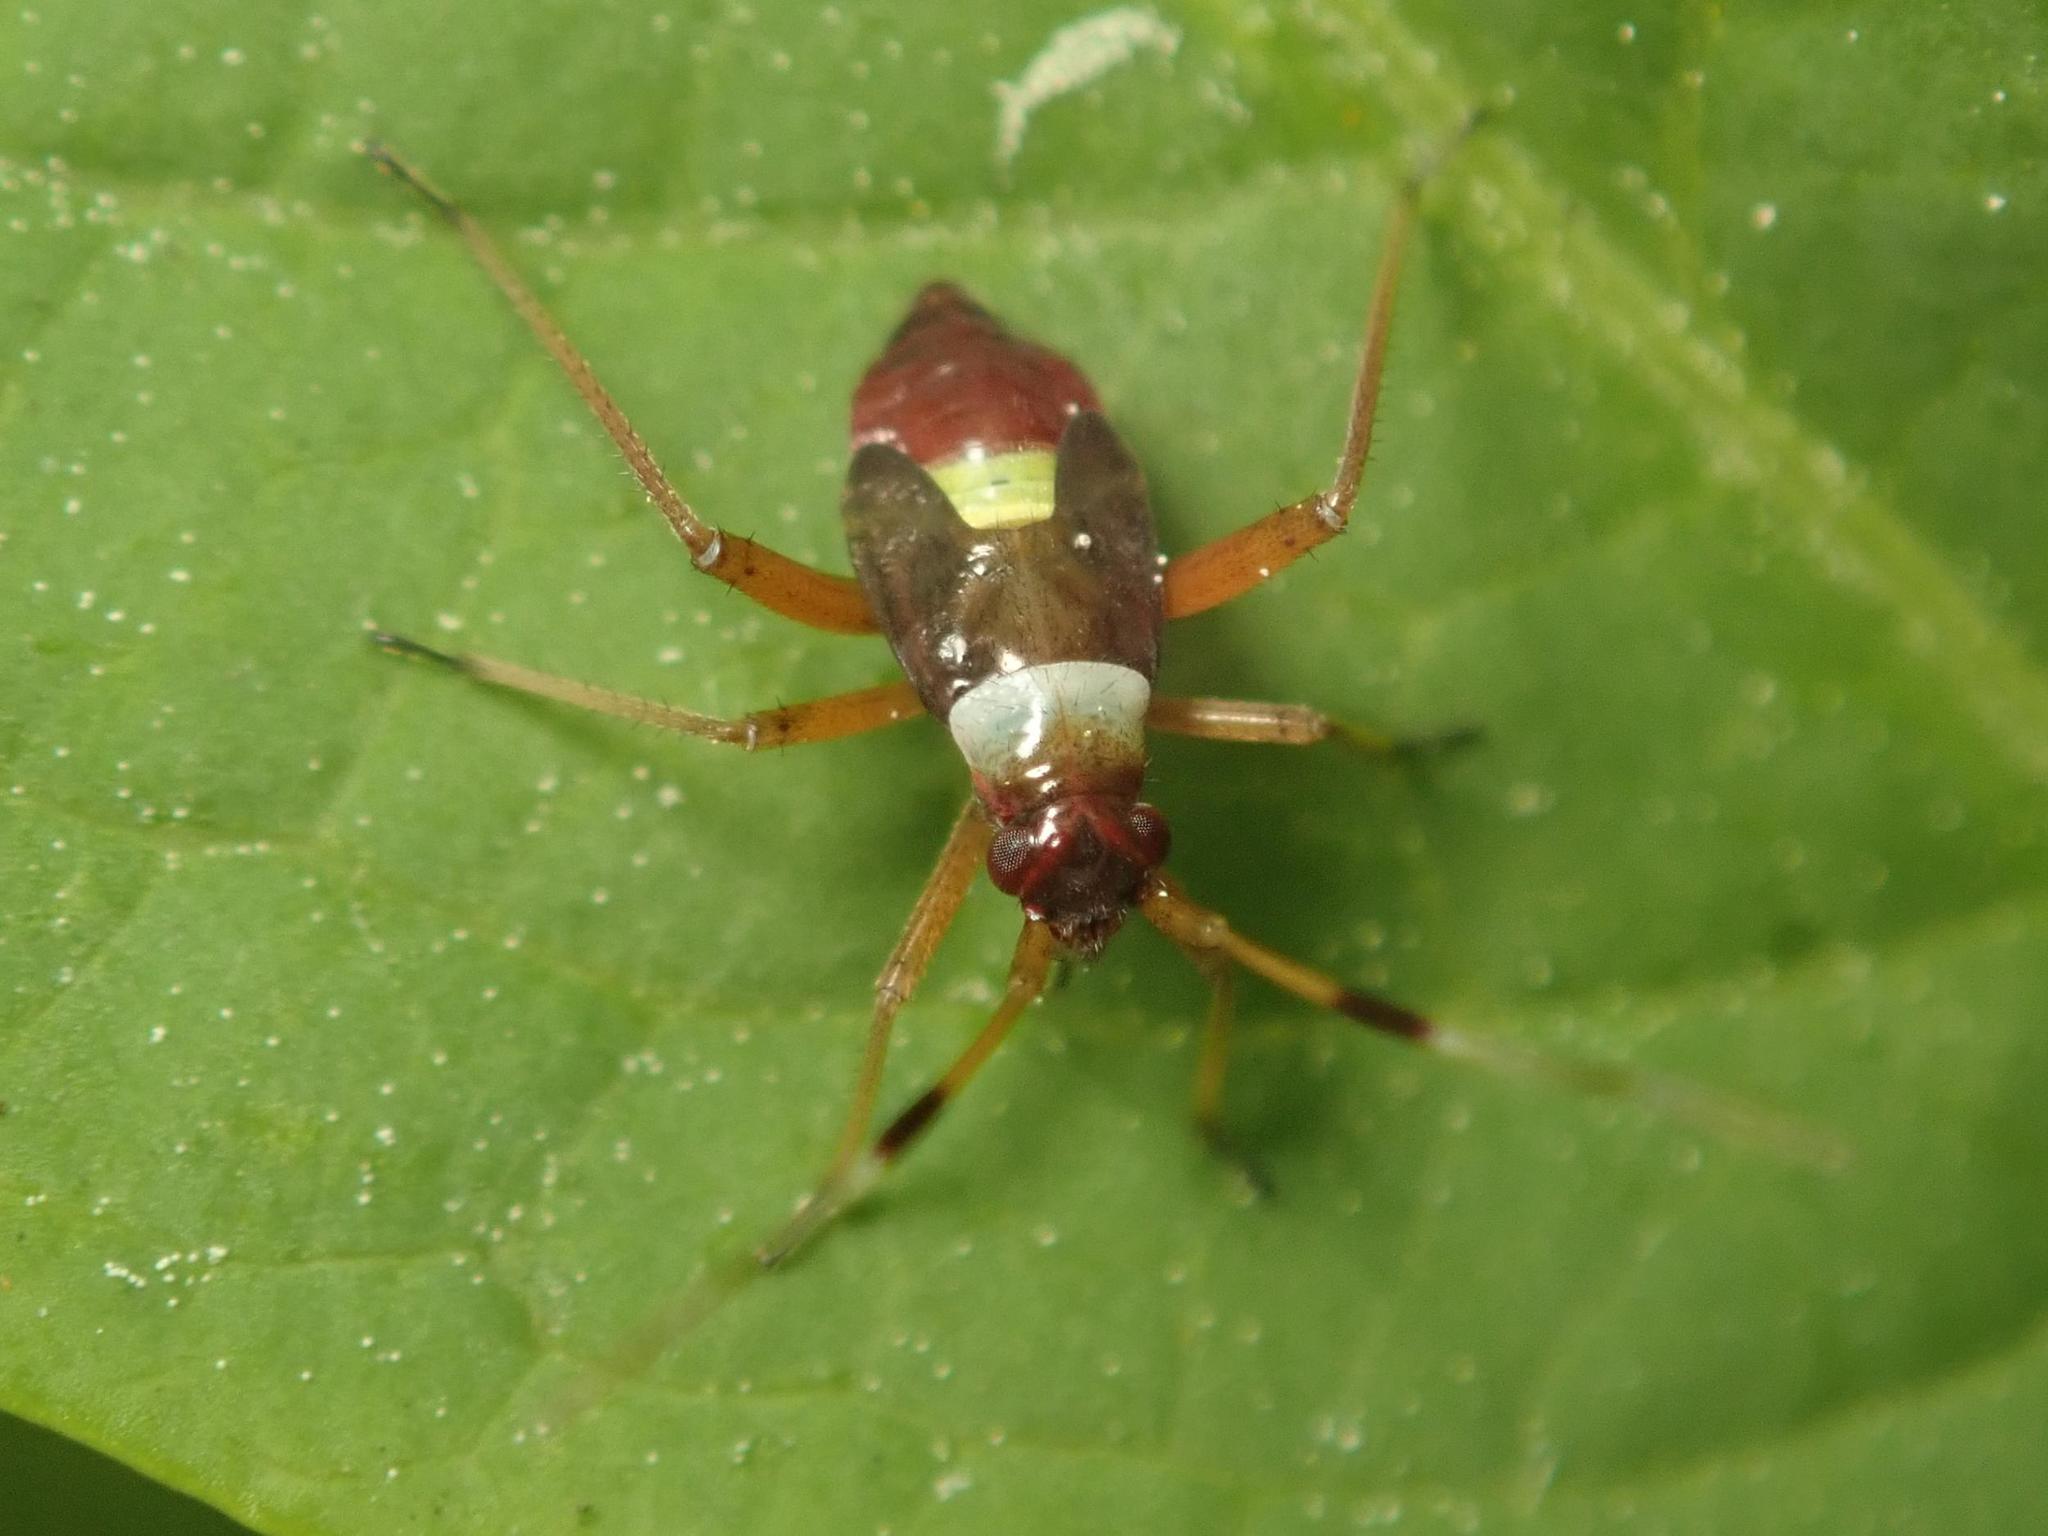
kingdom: Animalia
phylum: Arthropoda
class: Insecta
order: Hemiptera
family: Miridae
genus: Closterotomus
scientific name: Closterotomus biclavatus
